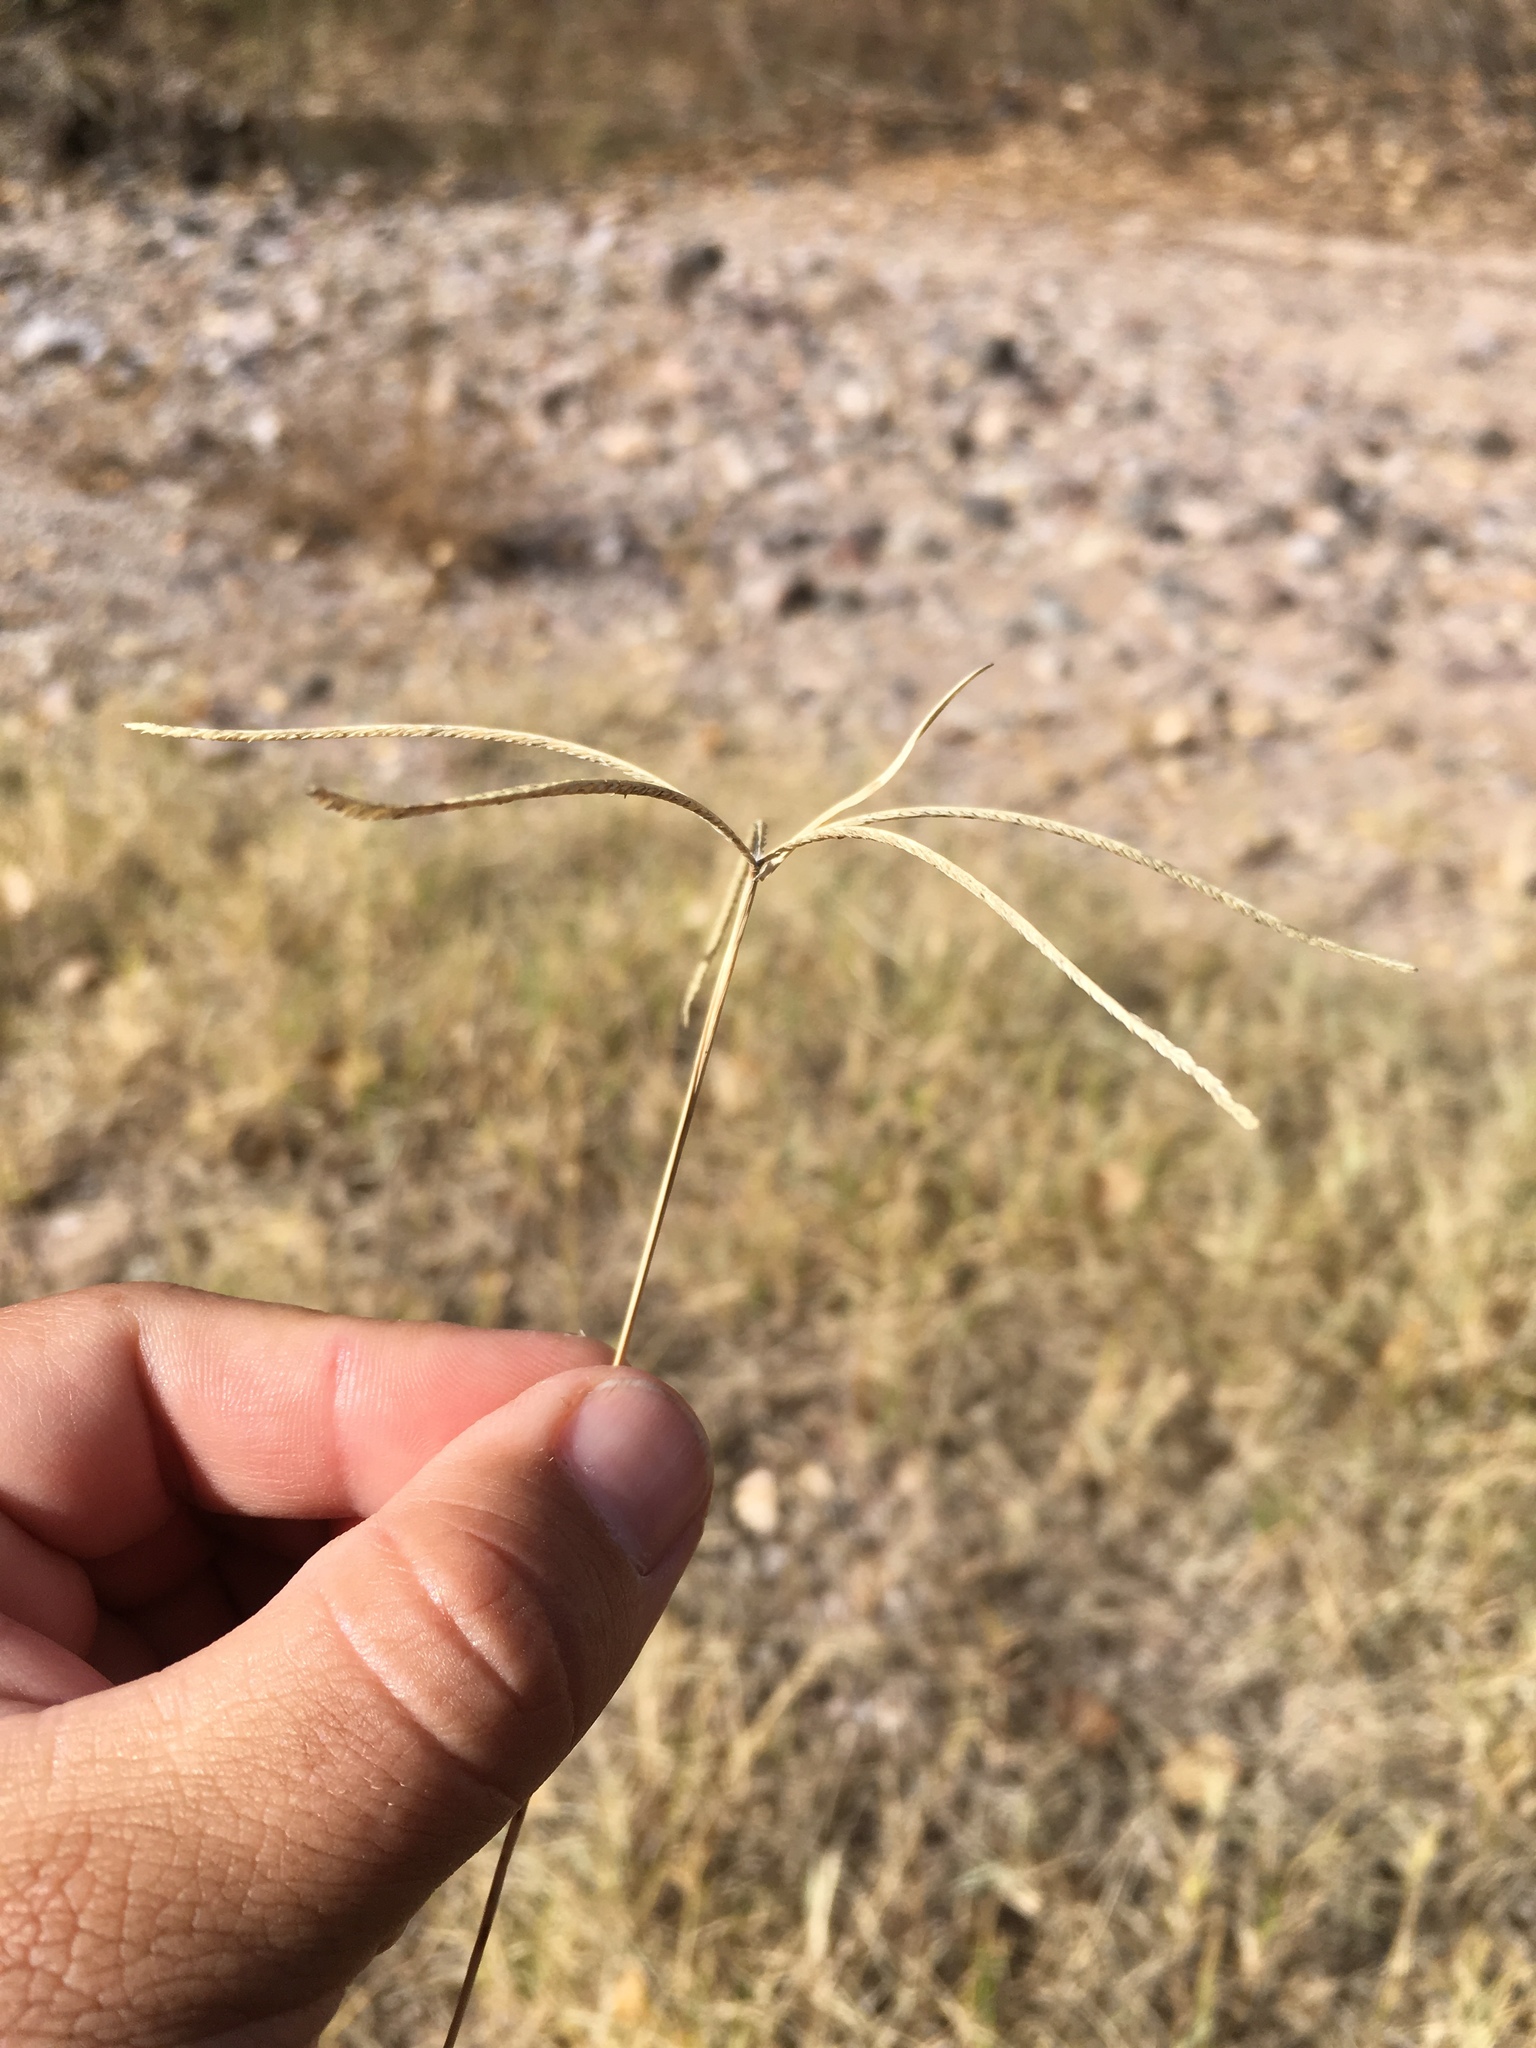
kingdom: Plantae
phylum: Tracheophyta
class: Liliopsida
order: Poales
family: Poaceae
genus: Cynodon
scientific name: Cynodon dactylon
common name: Bermuda grass
